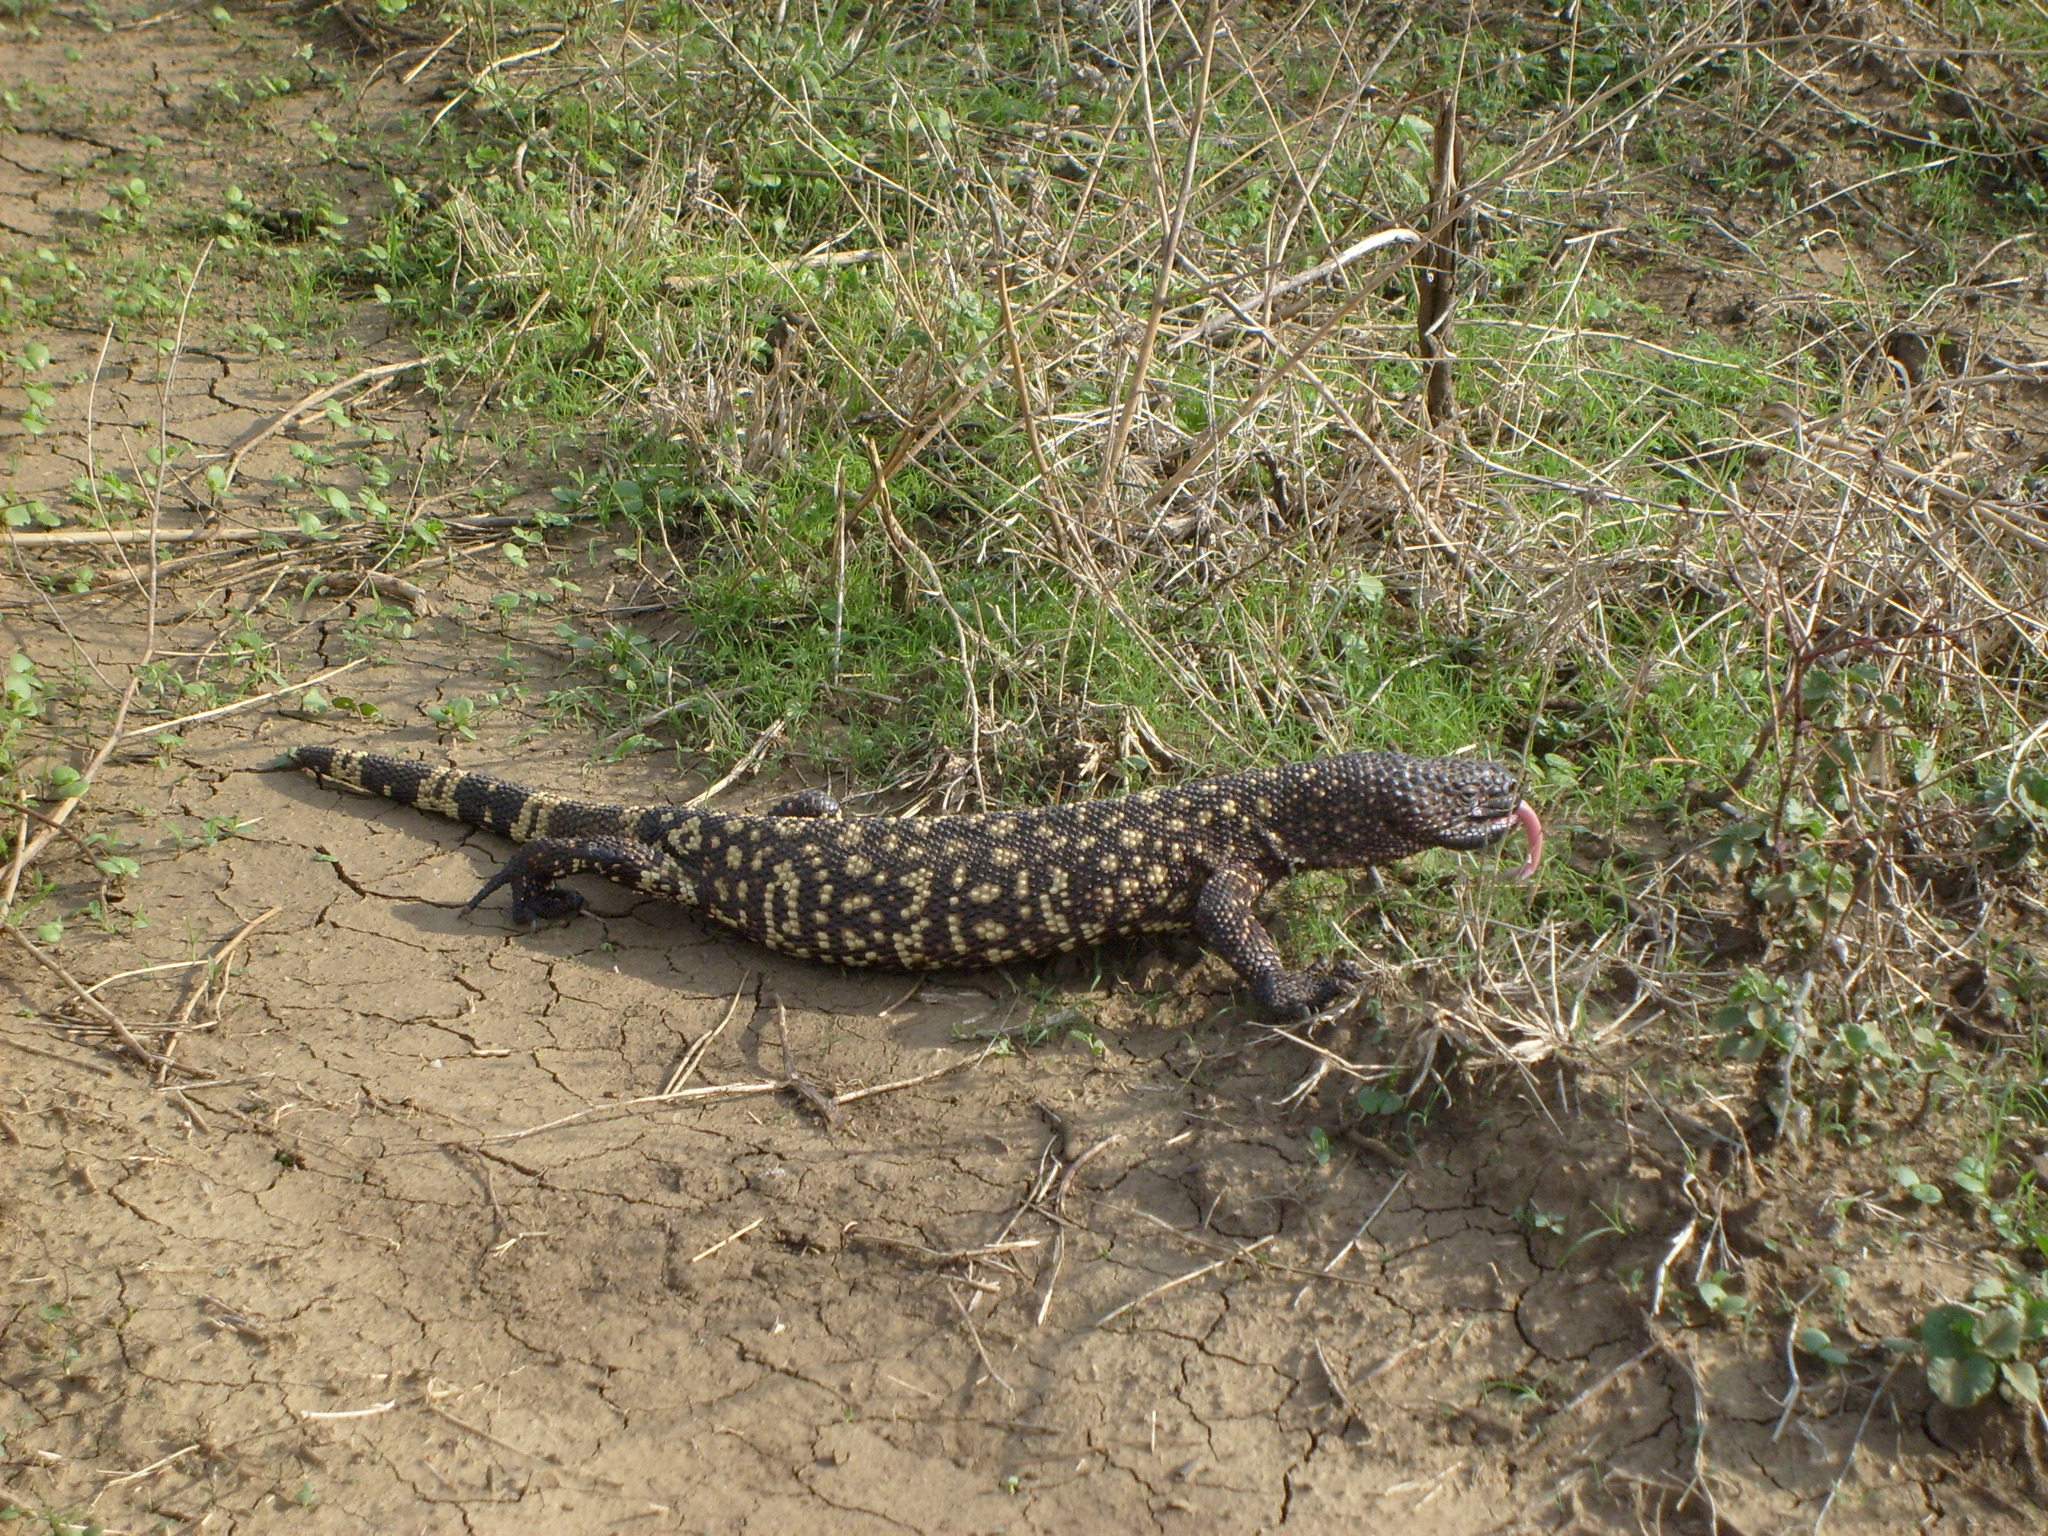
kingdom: Animalia
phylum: Chordata
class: Squamata
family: Helodermatidae
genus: Heloderma
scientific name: Heloderma horridum
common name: Mexican beaded lizard
